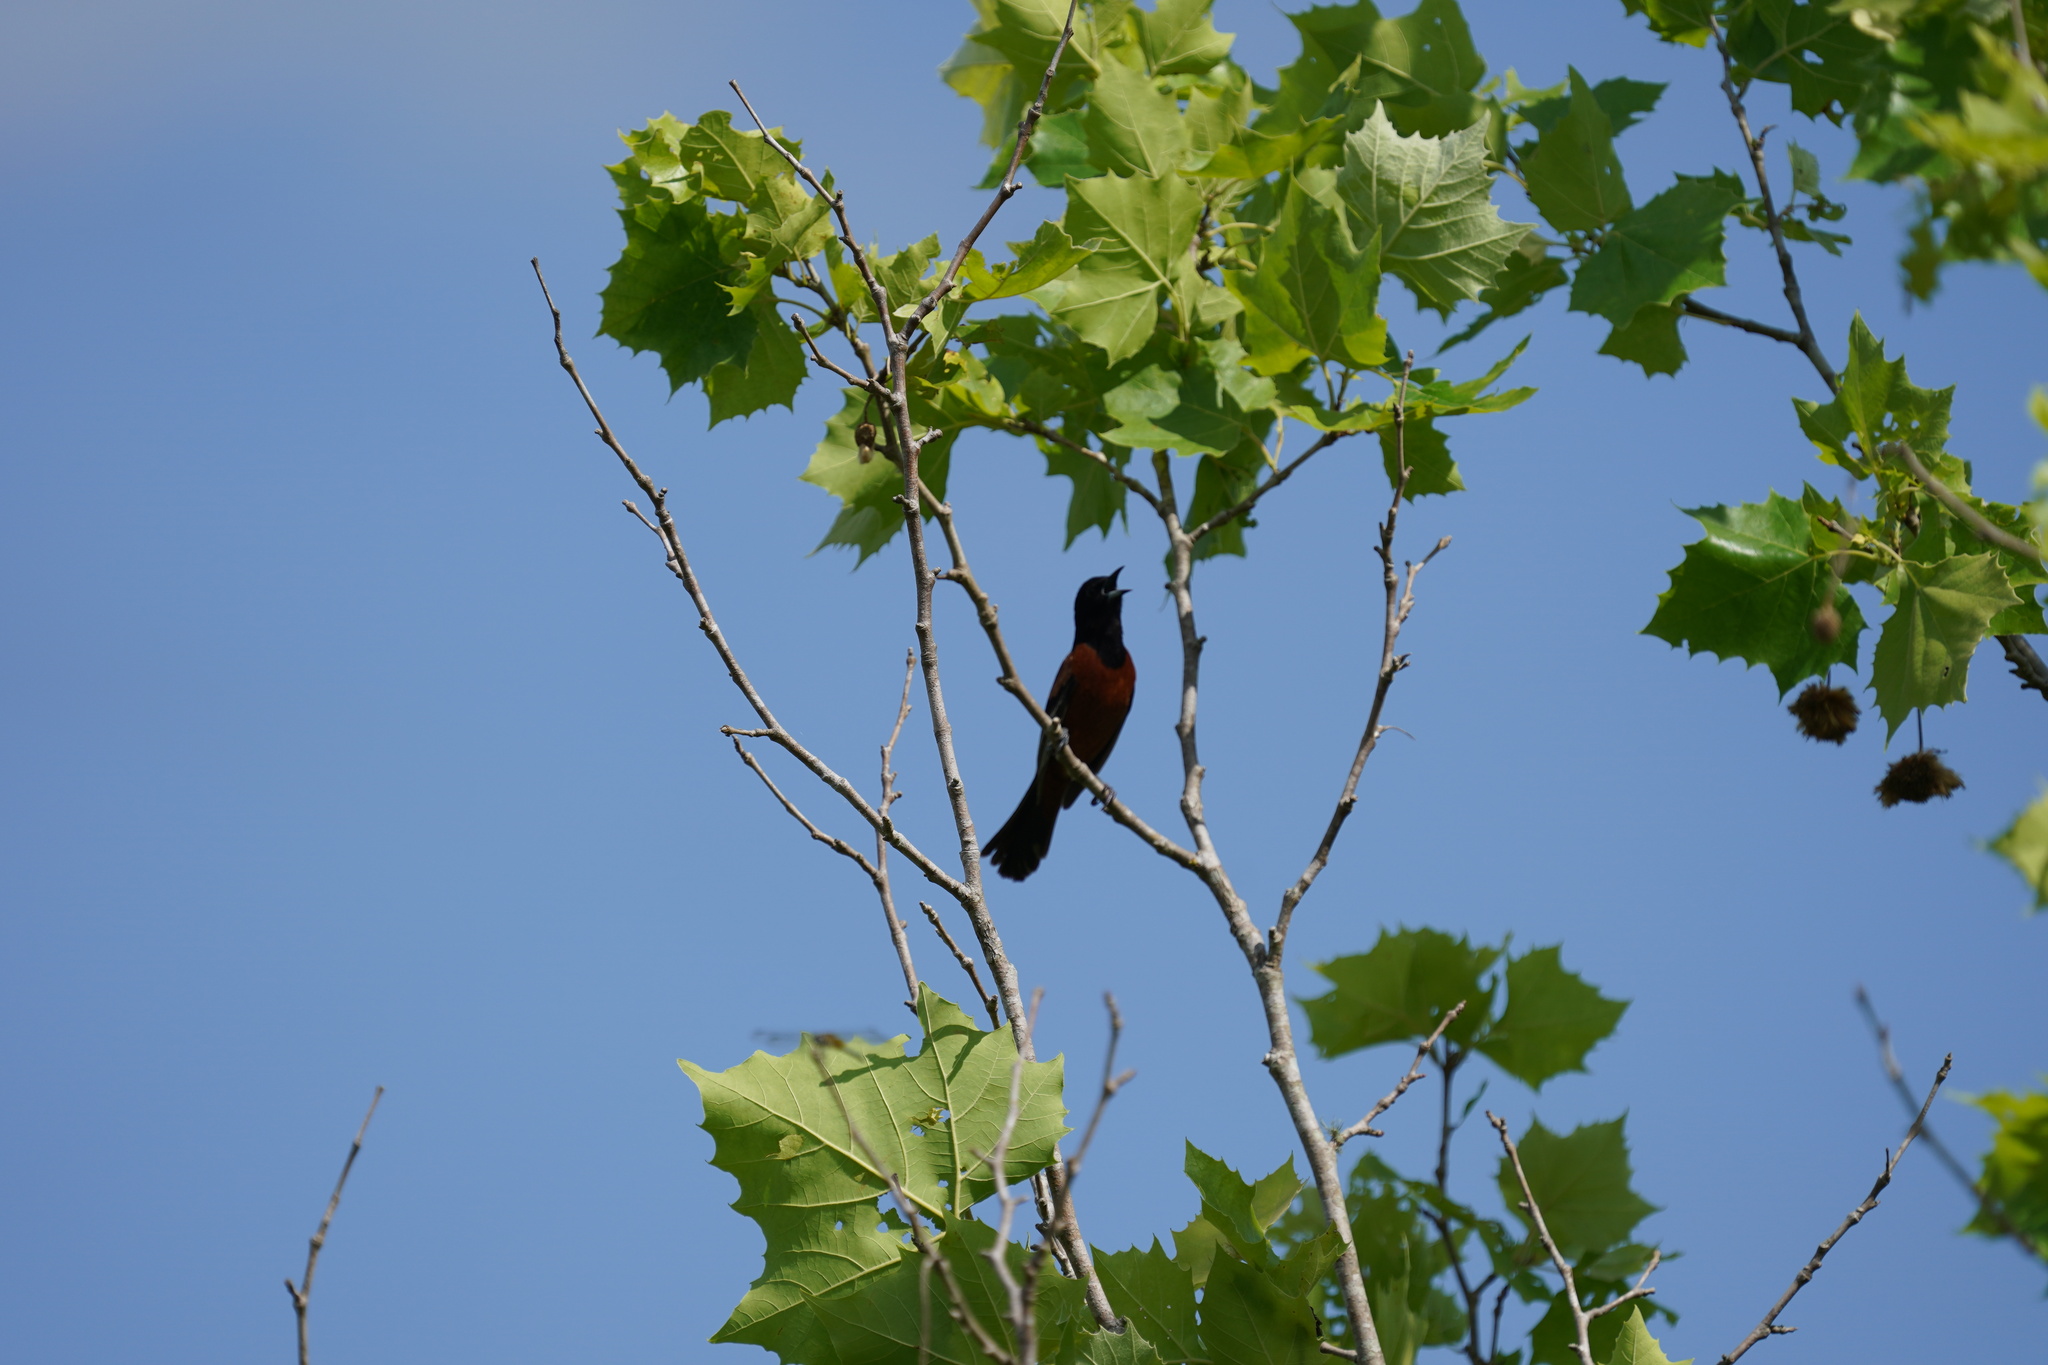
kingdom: Animalia
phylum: Chordata
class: Aves
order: Passeriformes
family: Icteridae
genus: Icterus
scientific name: Icterus spurius
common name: Orchard oriole
